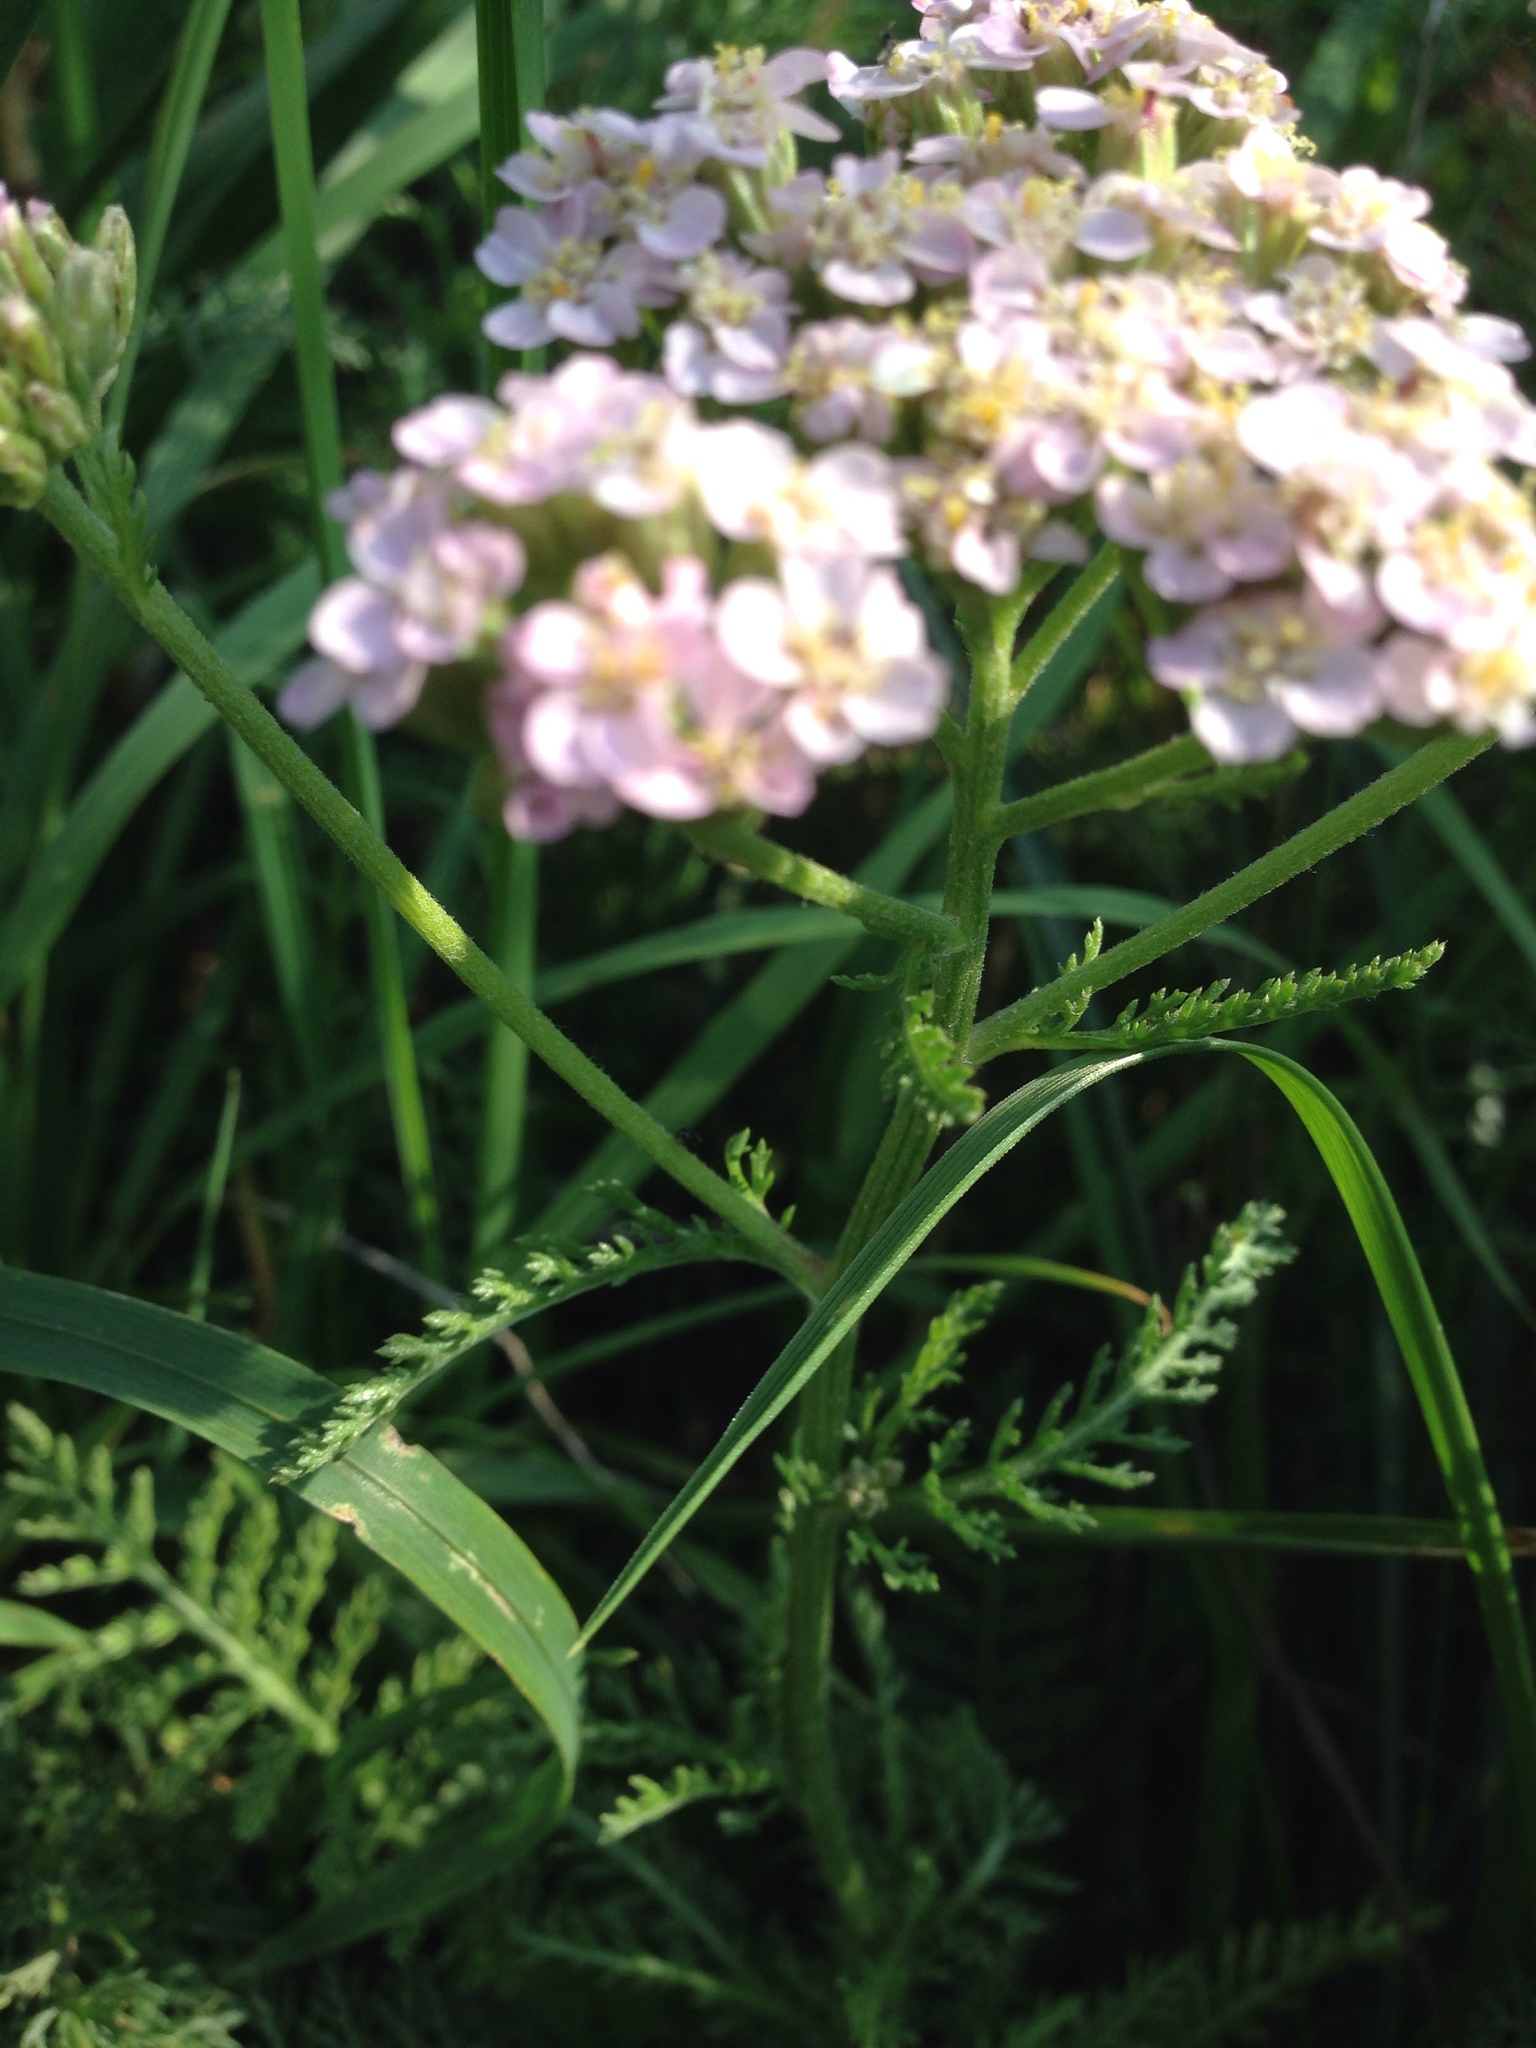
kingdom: Plantae
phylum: Tracheophyta
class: Magnoliopsida
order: Asterales
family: Asteraceae
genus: Achillea
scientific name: Achillea millefolium
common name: Yarrow
